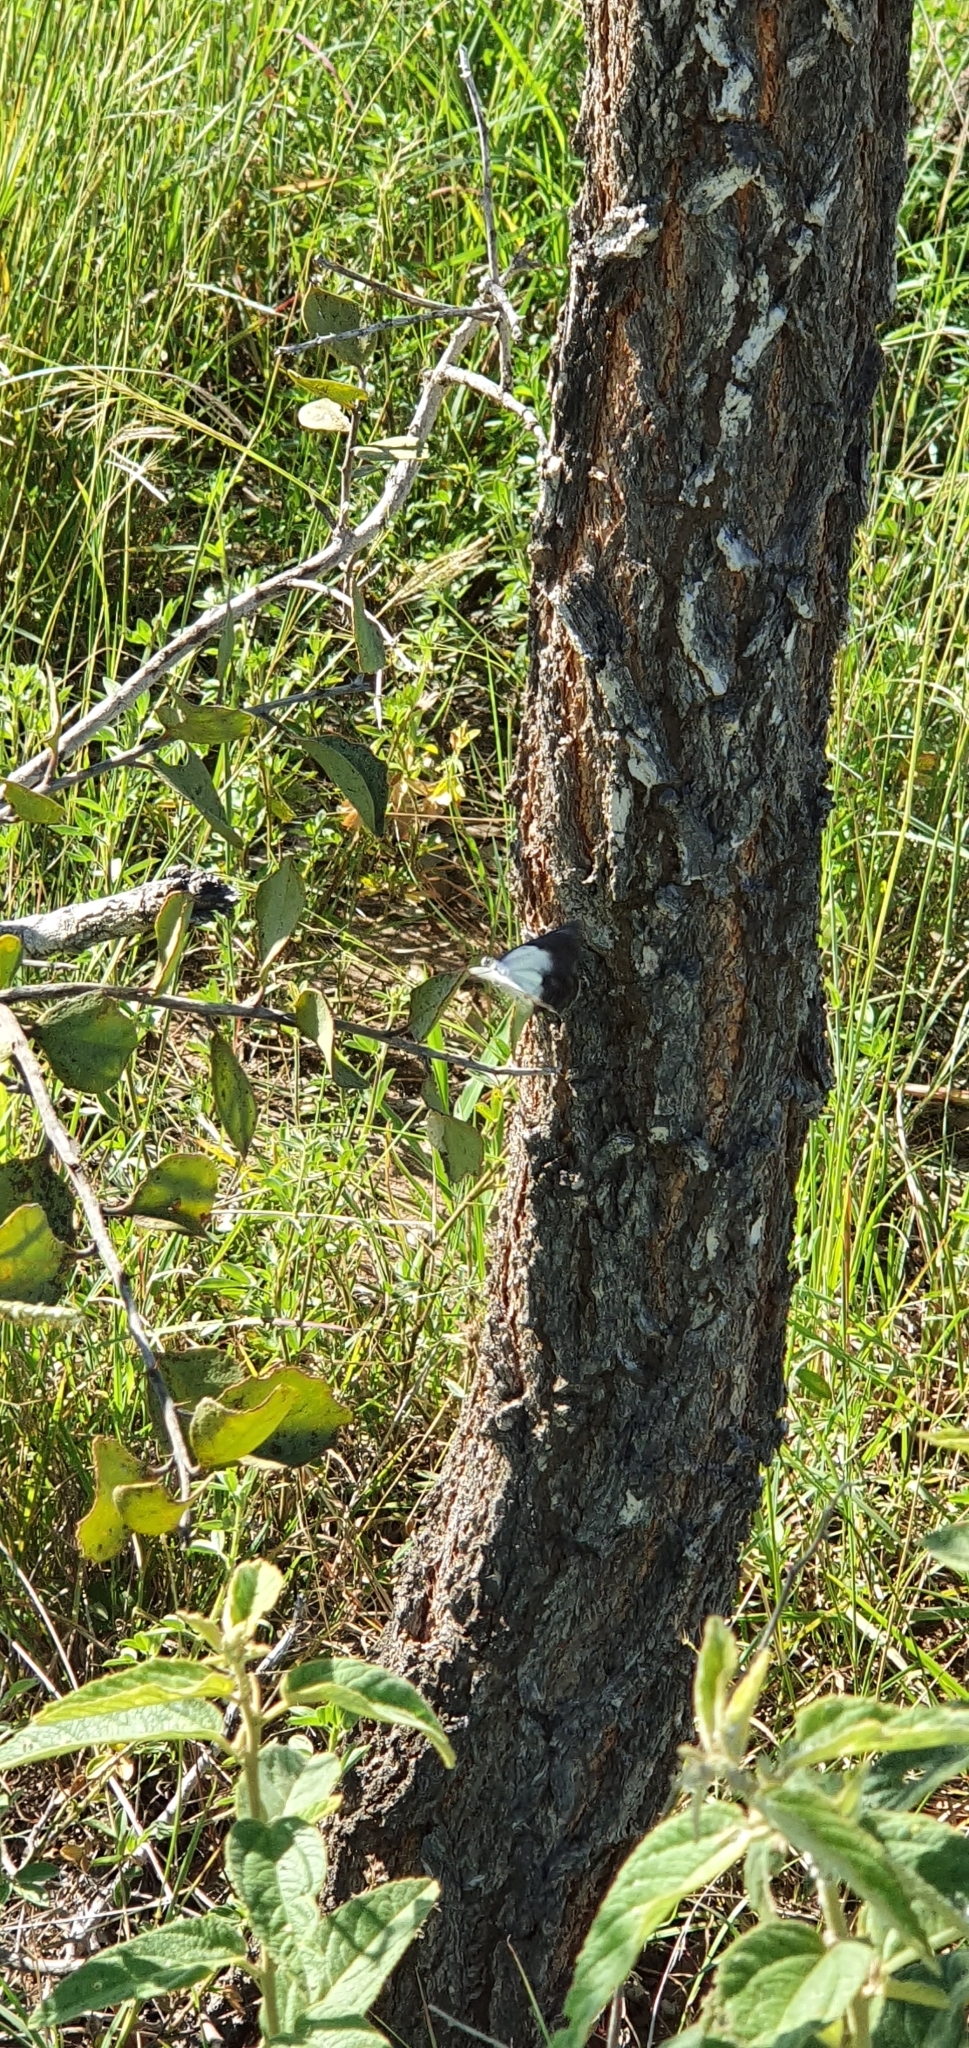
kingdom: Animalia
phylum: Arthropoda
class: Insecta
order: Lepidoptera
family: Pieridae
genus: Belenois
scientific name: Belenois java
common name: Caper white
